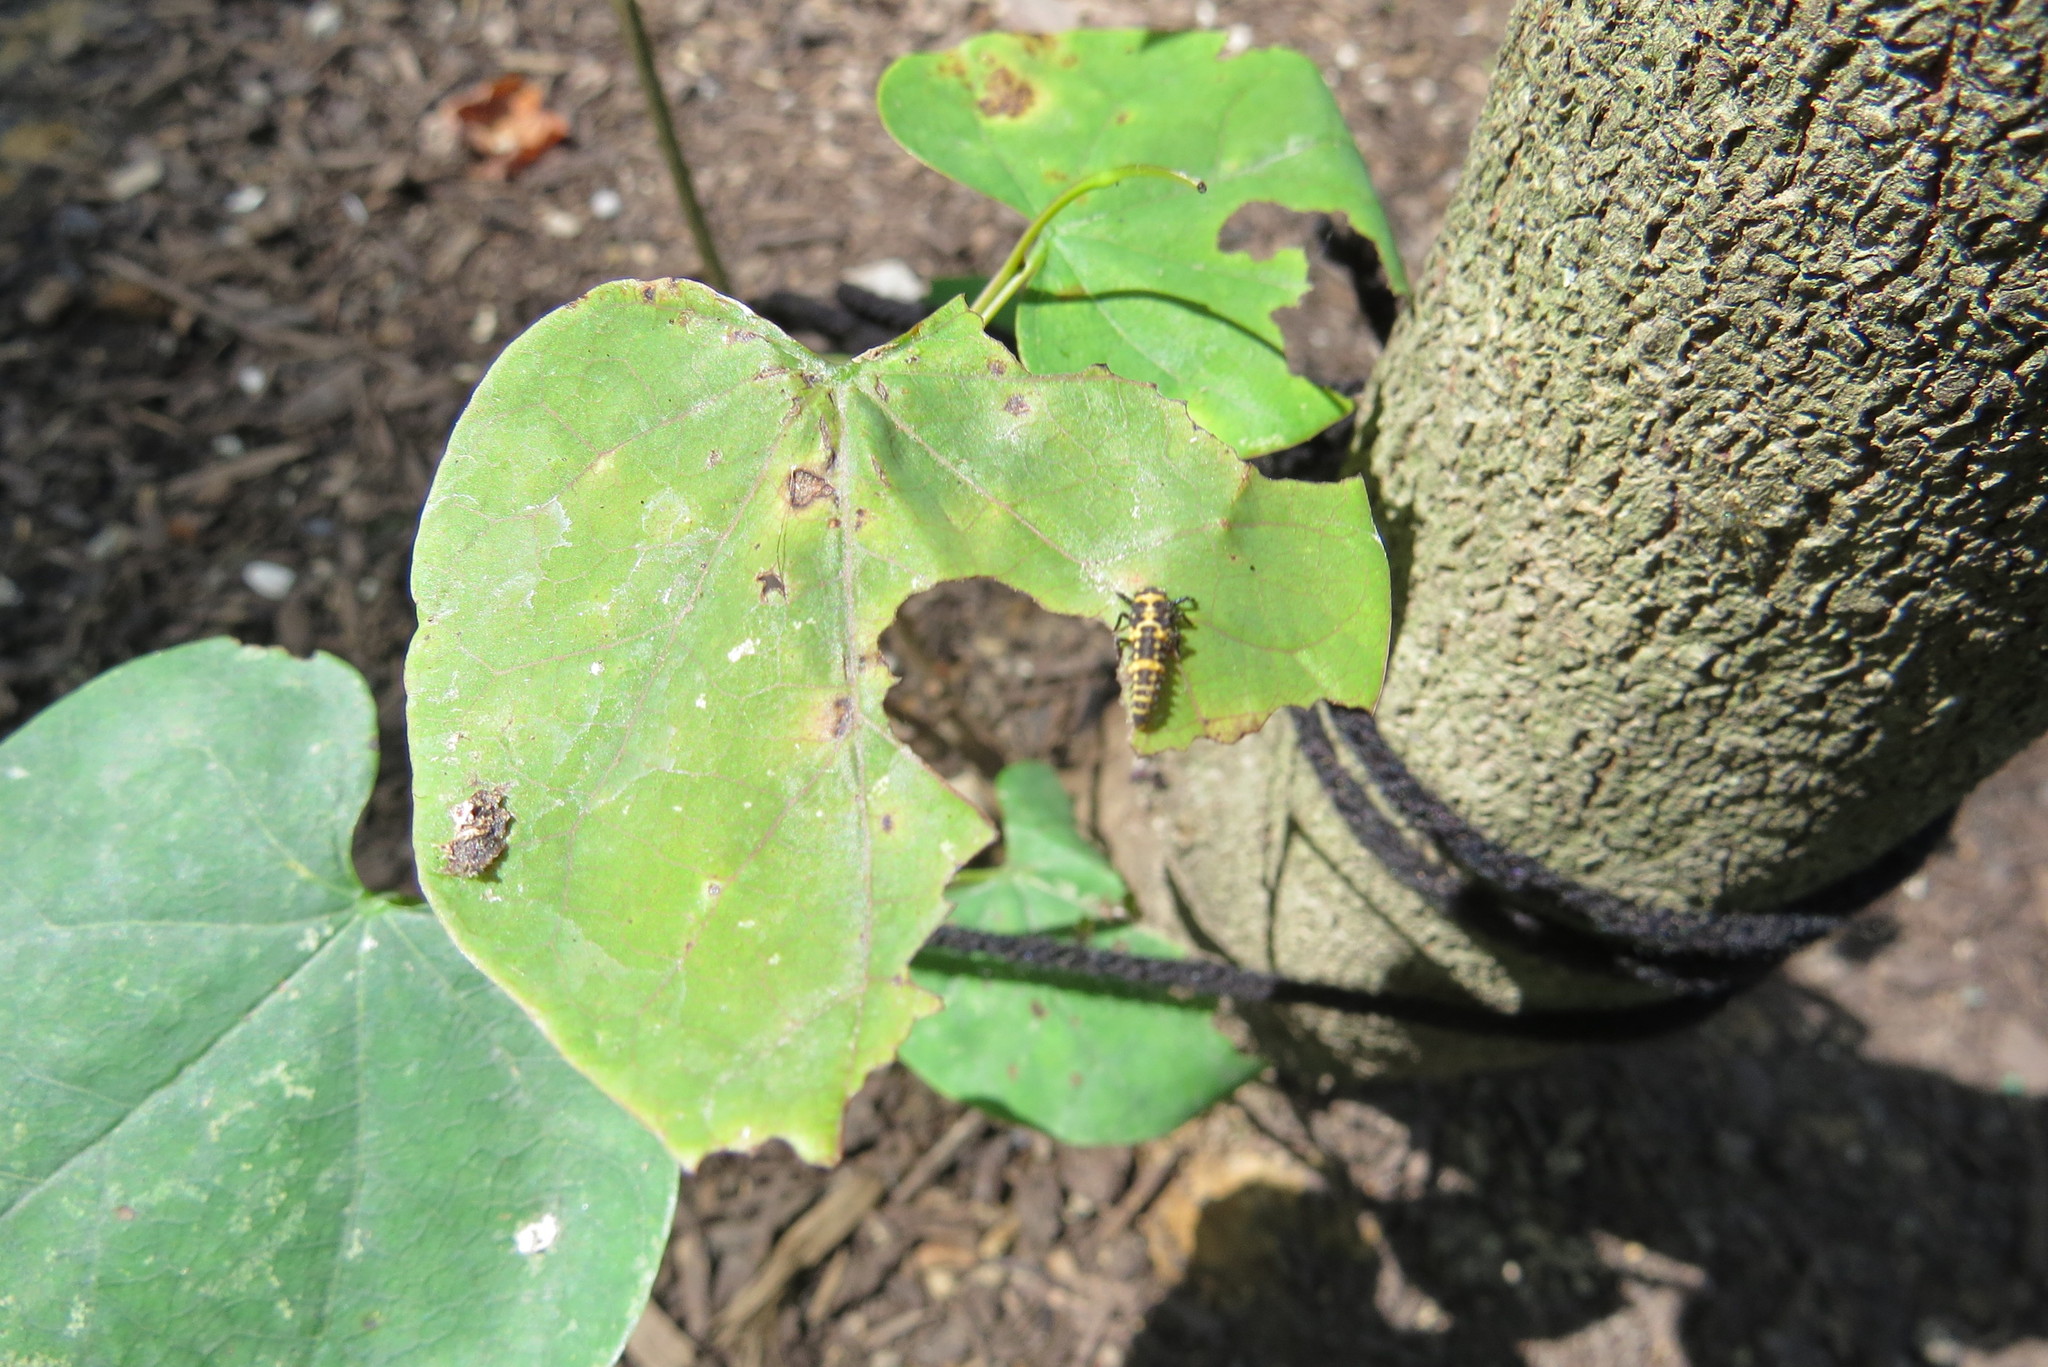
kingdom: Animalia
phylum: Arthropoda
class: Insecta
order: Coleoptera
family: Coccinellidae
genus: Coleomegilla
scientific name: Coleomegilla maculata
